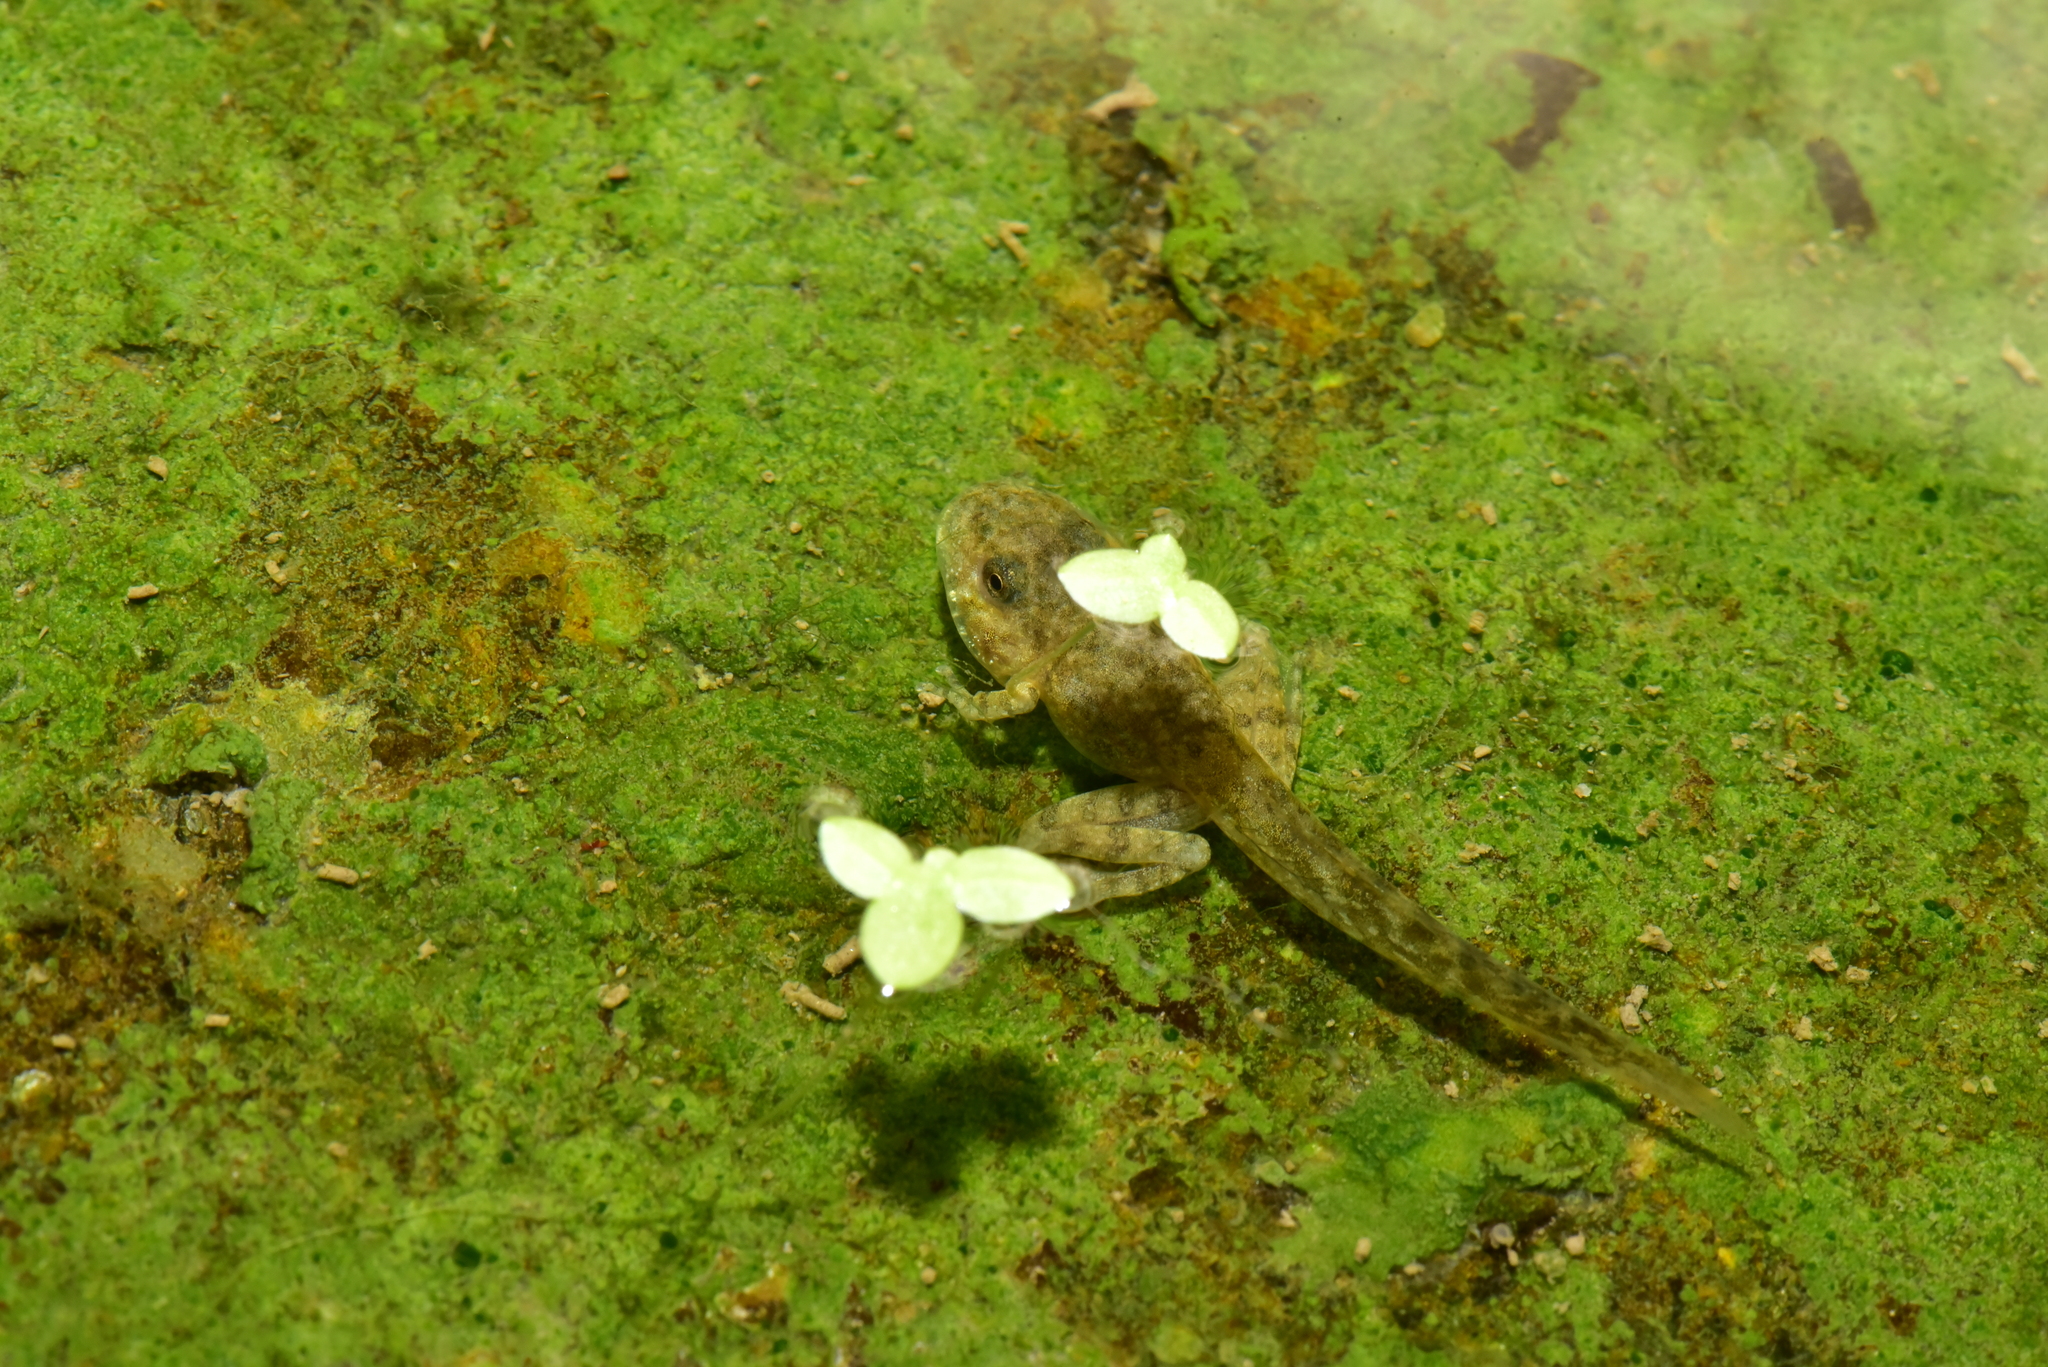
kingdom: Animalia
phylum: Chordata
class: Amphibia
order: Anura
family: Rhacophoridae
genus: Buergeria
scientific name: Buergeria otai
